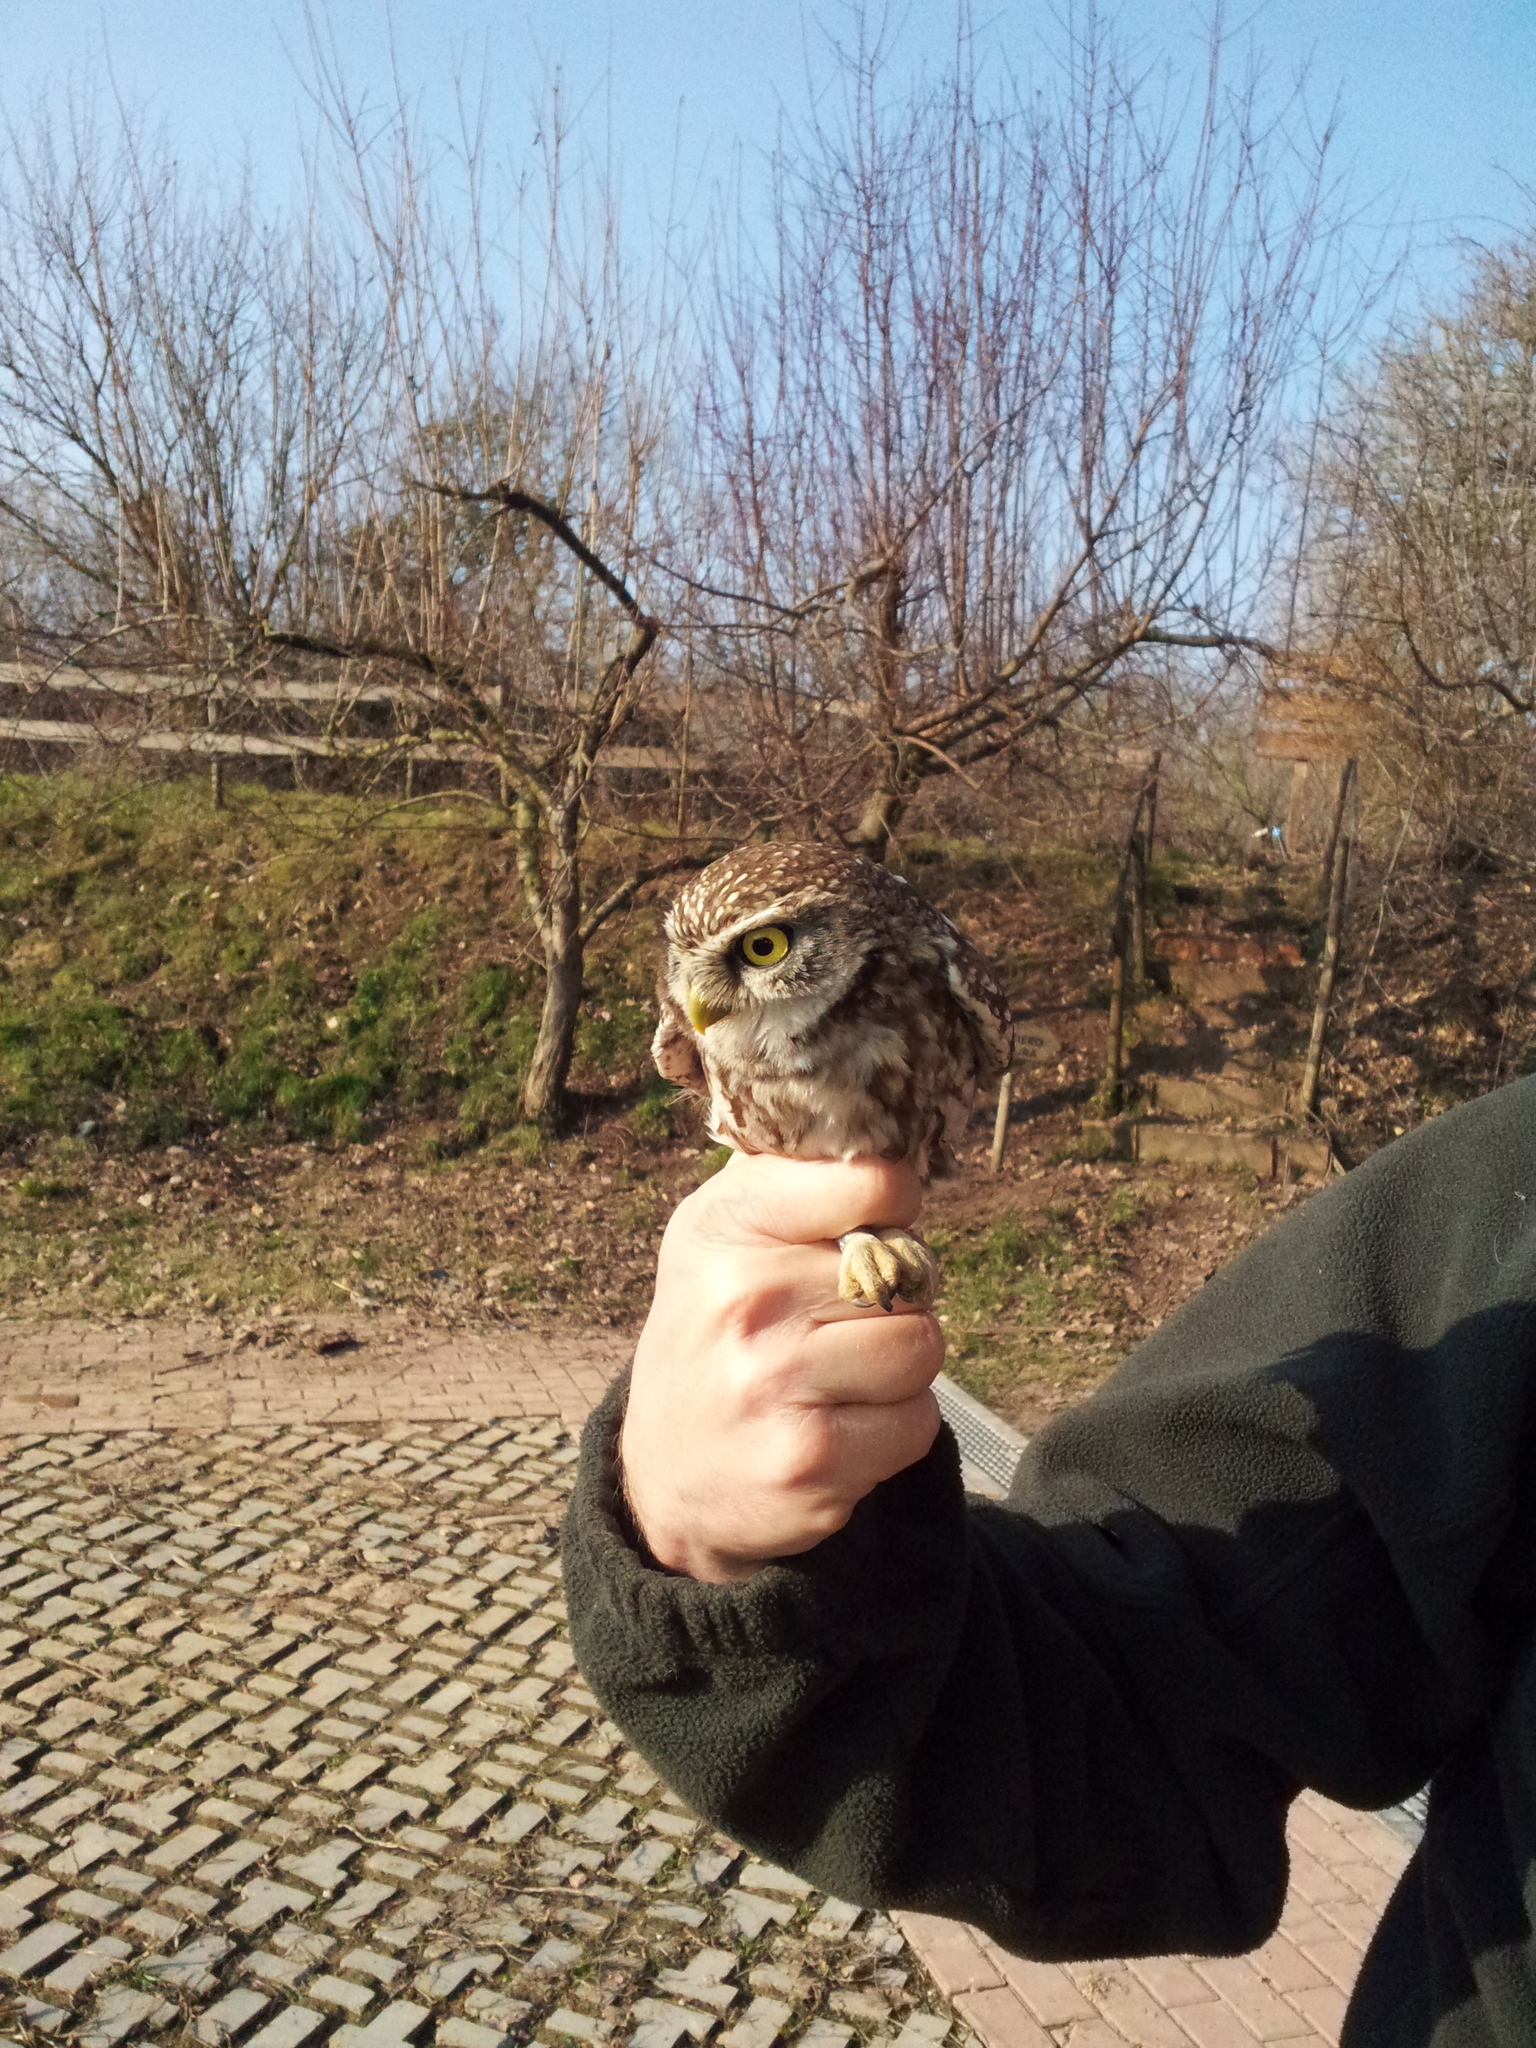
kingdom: Animalia
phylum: Chordata
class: Aves
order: Strigiformes
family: Strigidae
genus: Athene
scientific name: Athene noctua
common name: Little owl
